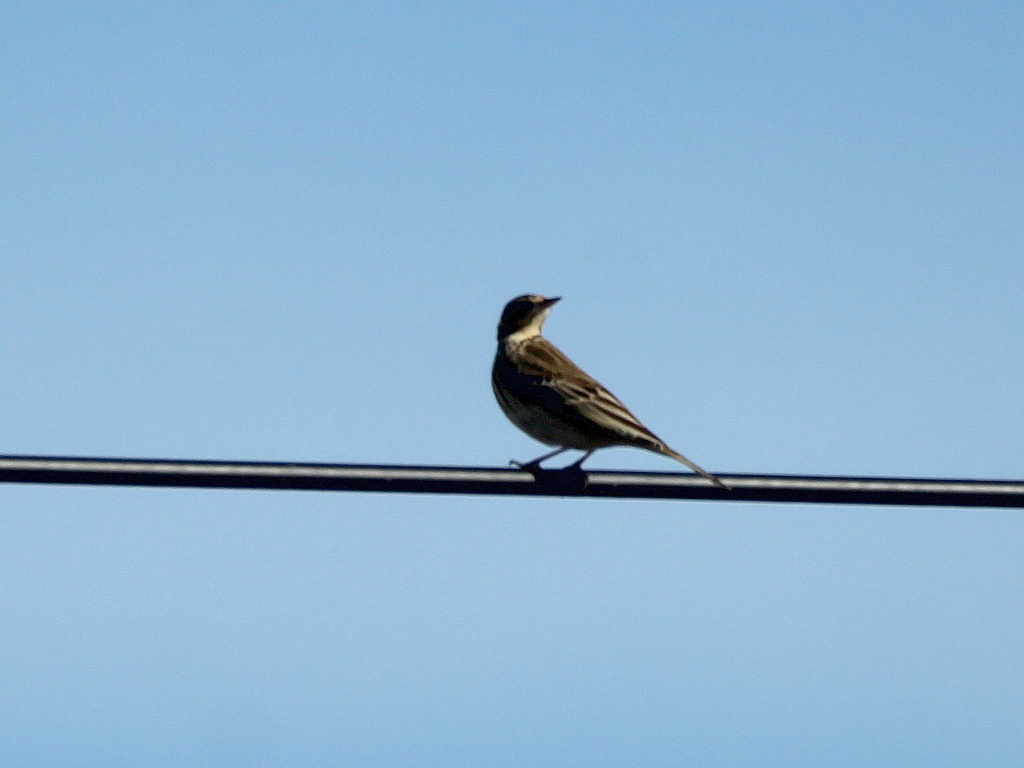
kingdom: Animalia
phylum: Chordata
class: Aves
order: Passeriformes
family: Motacillidae
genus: Anthus
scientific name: Anthus trivialis
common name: Tree pipit
